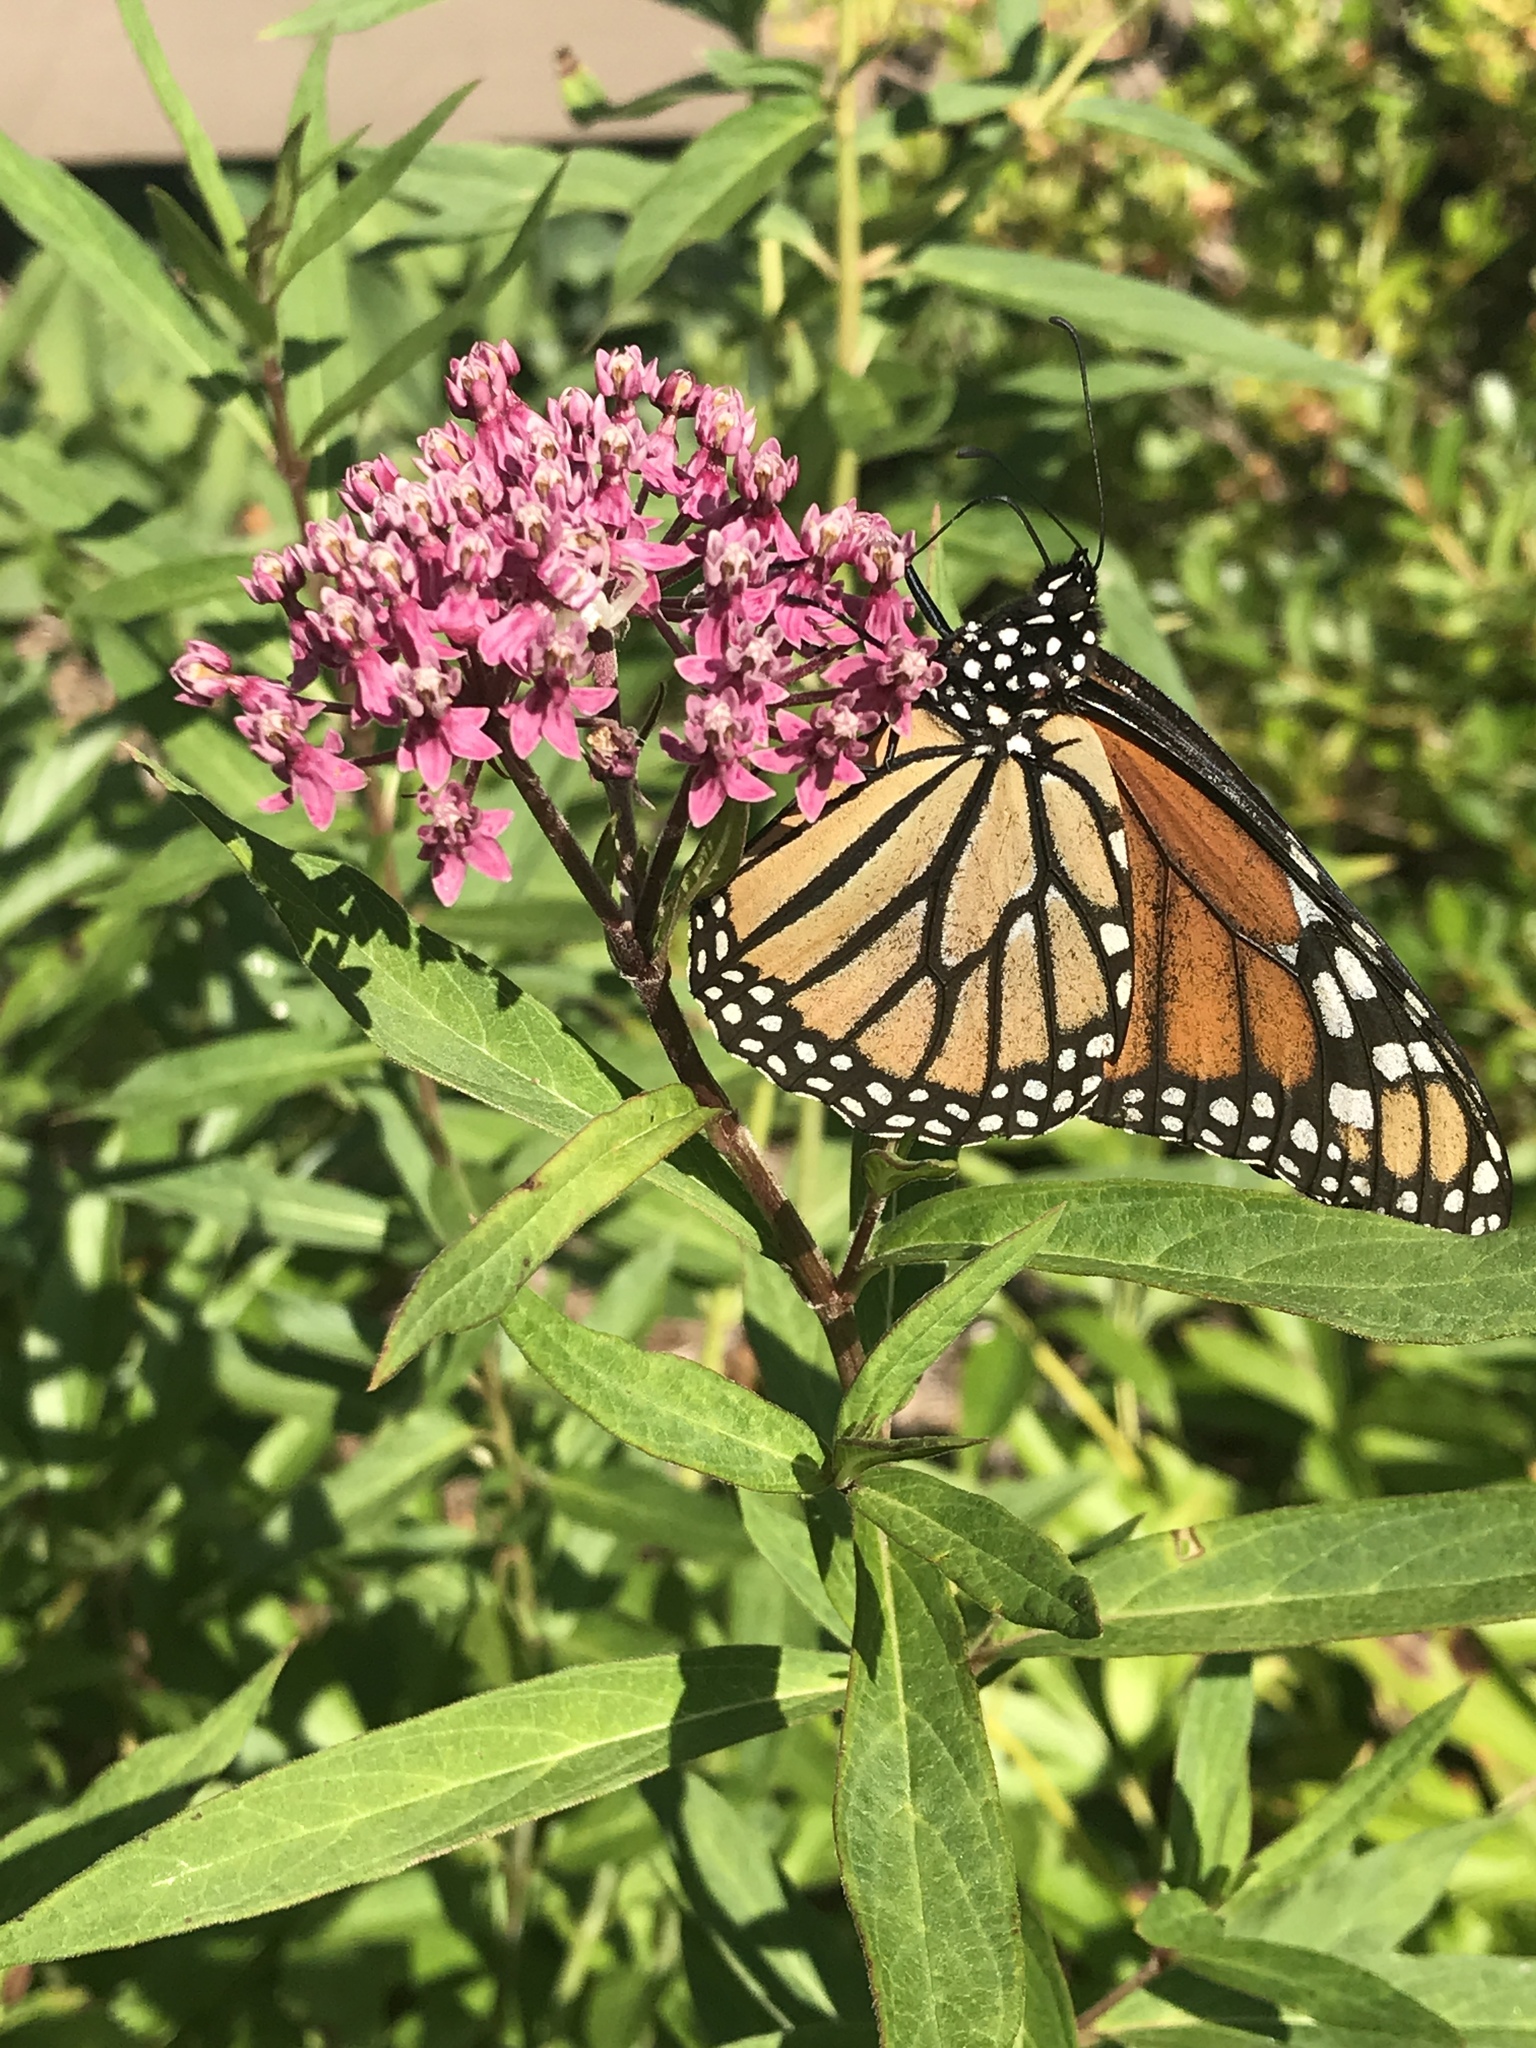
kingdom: Animalia
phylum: Arthropoda
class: Insecta
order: Lepidoptera
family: Nymphalidae
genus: Danaus
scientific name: Danaus plexippus
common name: Monarch
